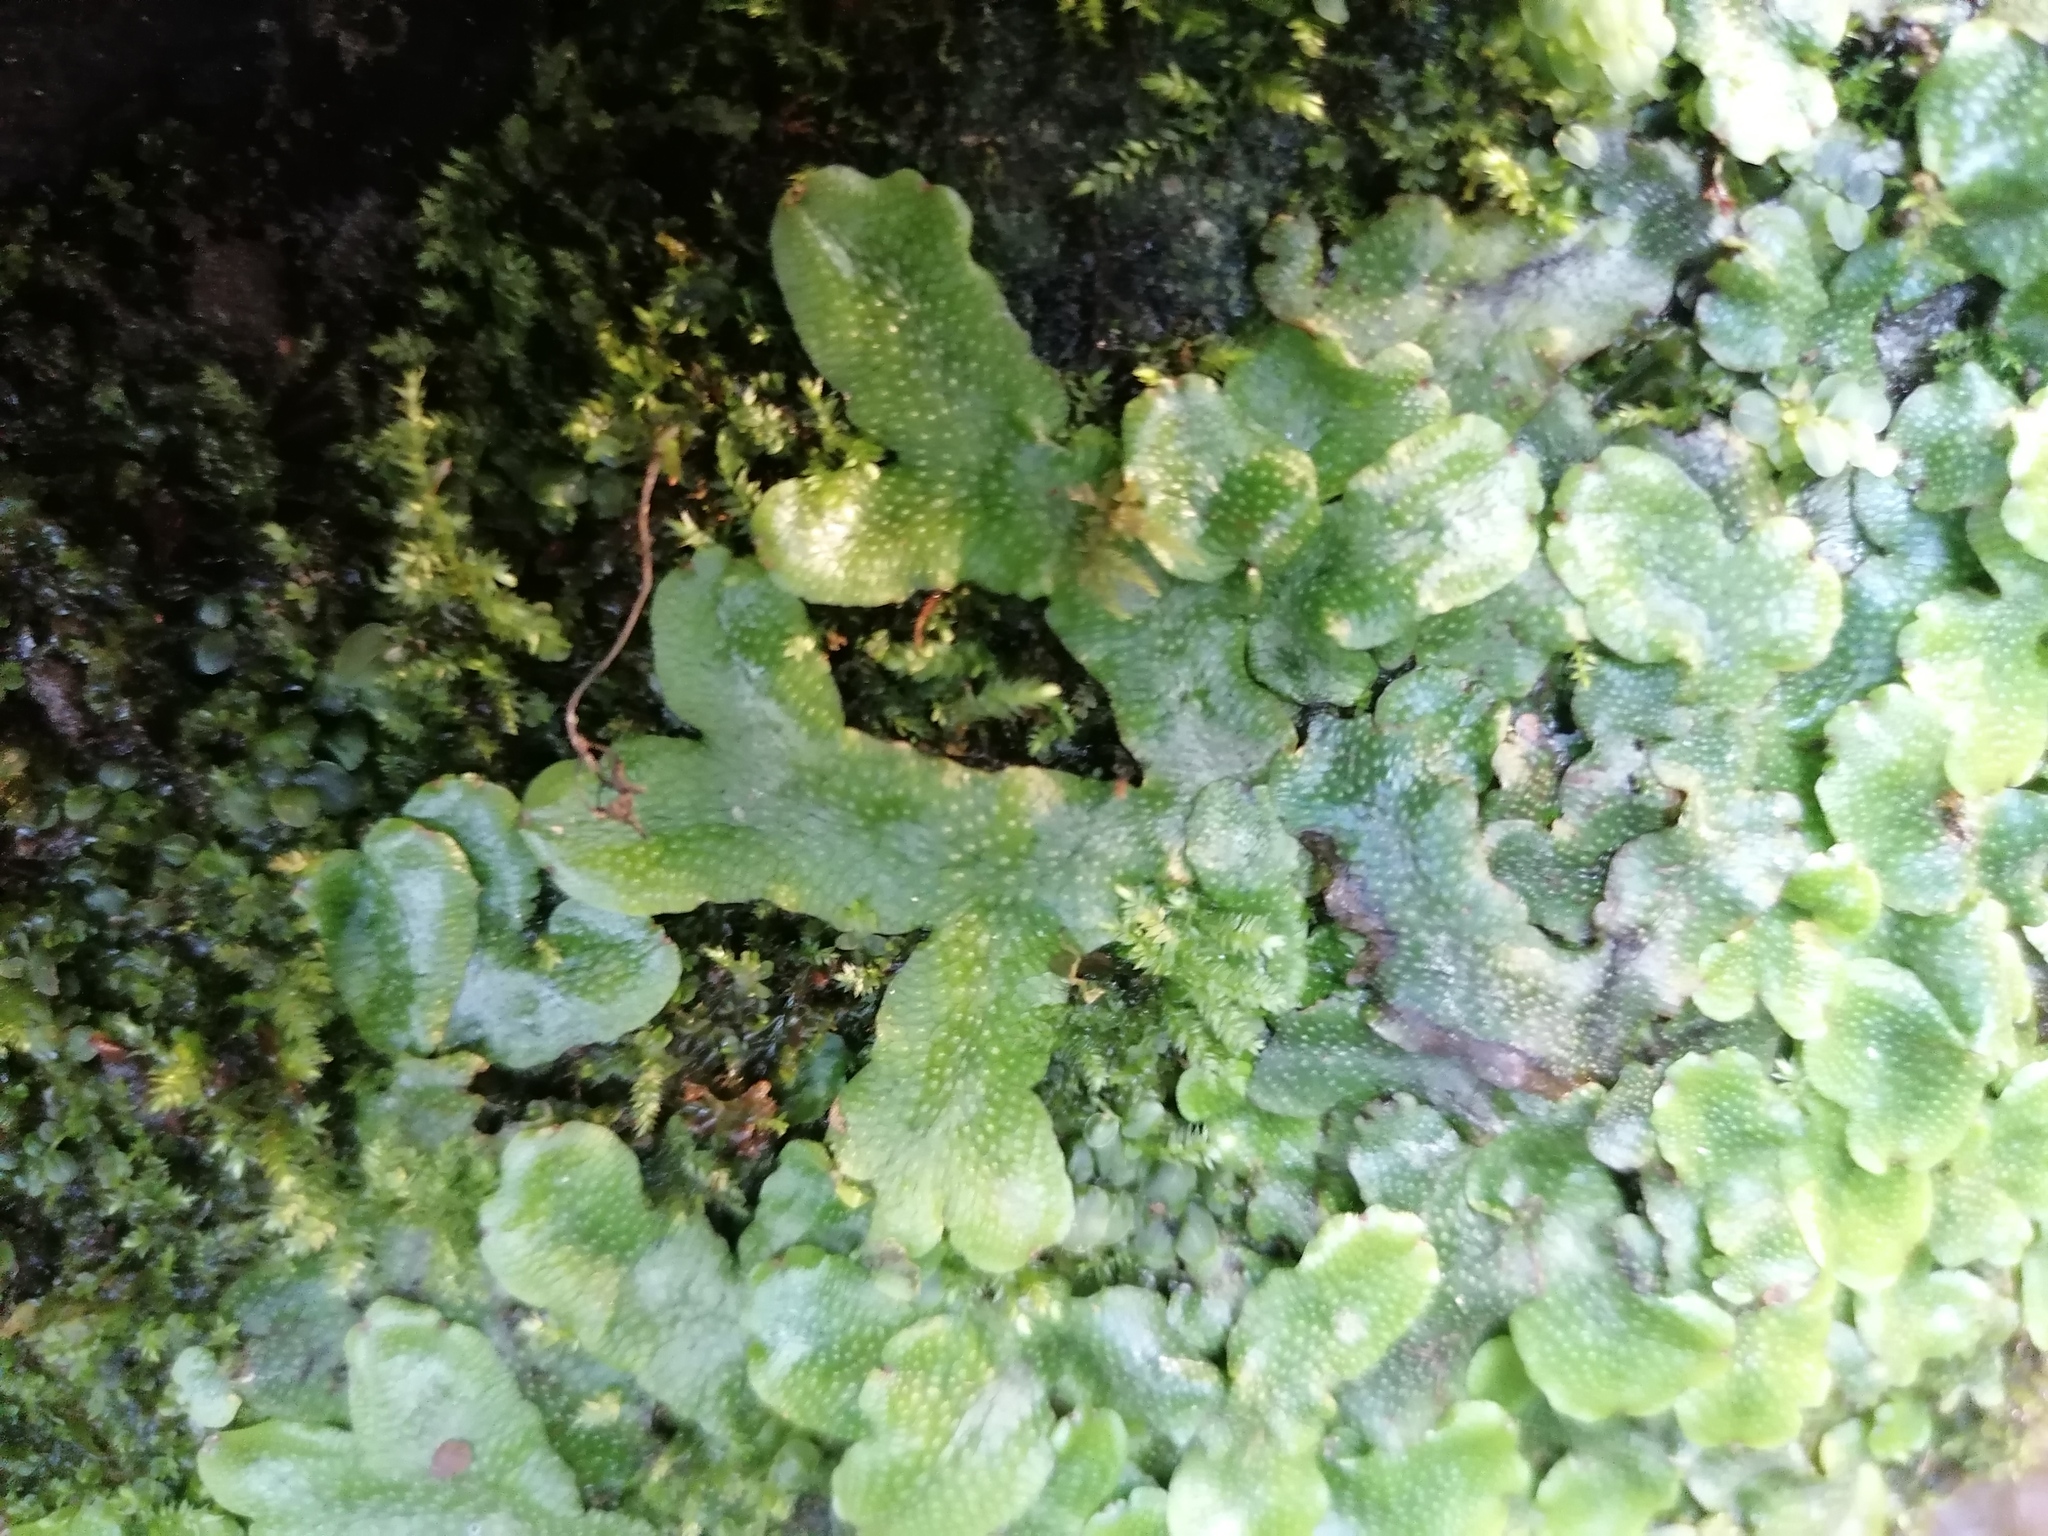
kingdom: Plantae
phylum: Marchantiophyta
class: Marchantiopsida
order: Marchantiales
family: Conocephalaceae
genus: Conocephalum
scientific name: Conocephalum conicum
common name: Great scented liverwort
